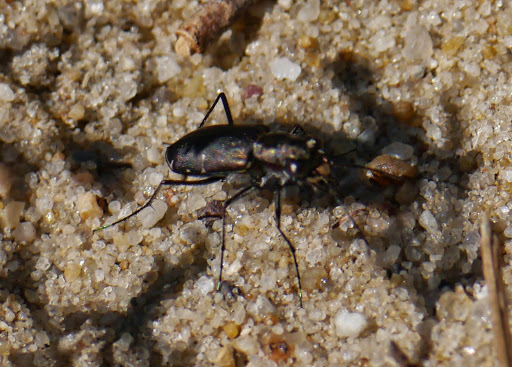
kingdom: Animalia
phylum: Arthropoda
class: Insecta
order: Coleoptera
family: Carabidae
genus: Cicindela
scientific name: Cicindela punctulata
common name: Punctured tiger beetle
